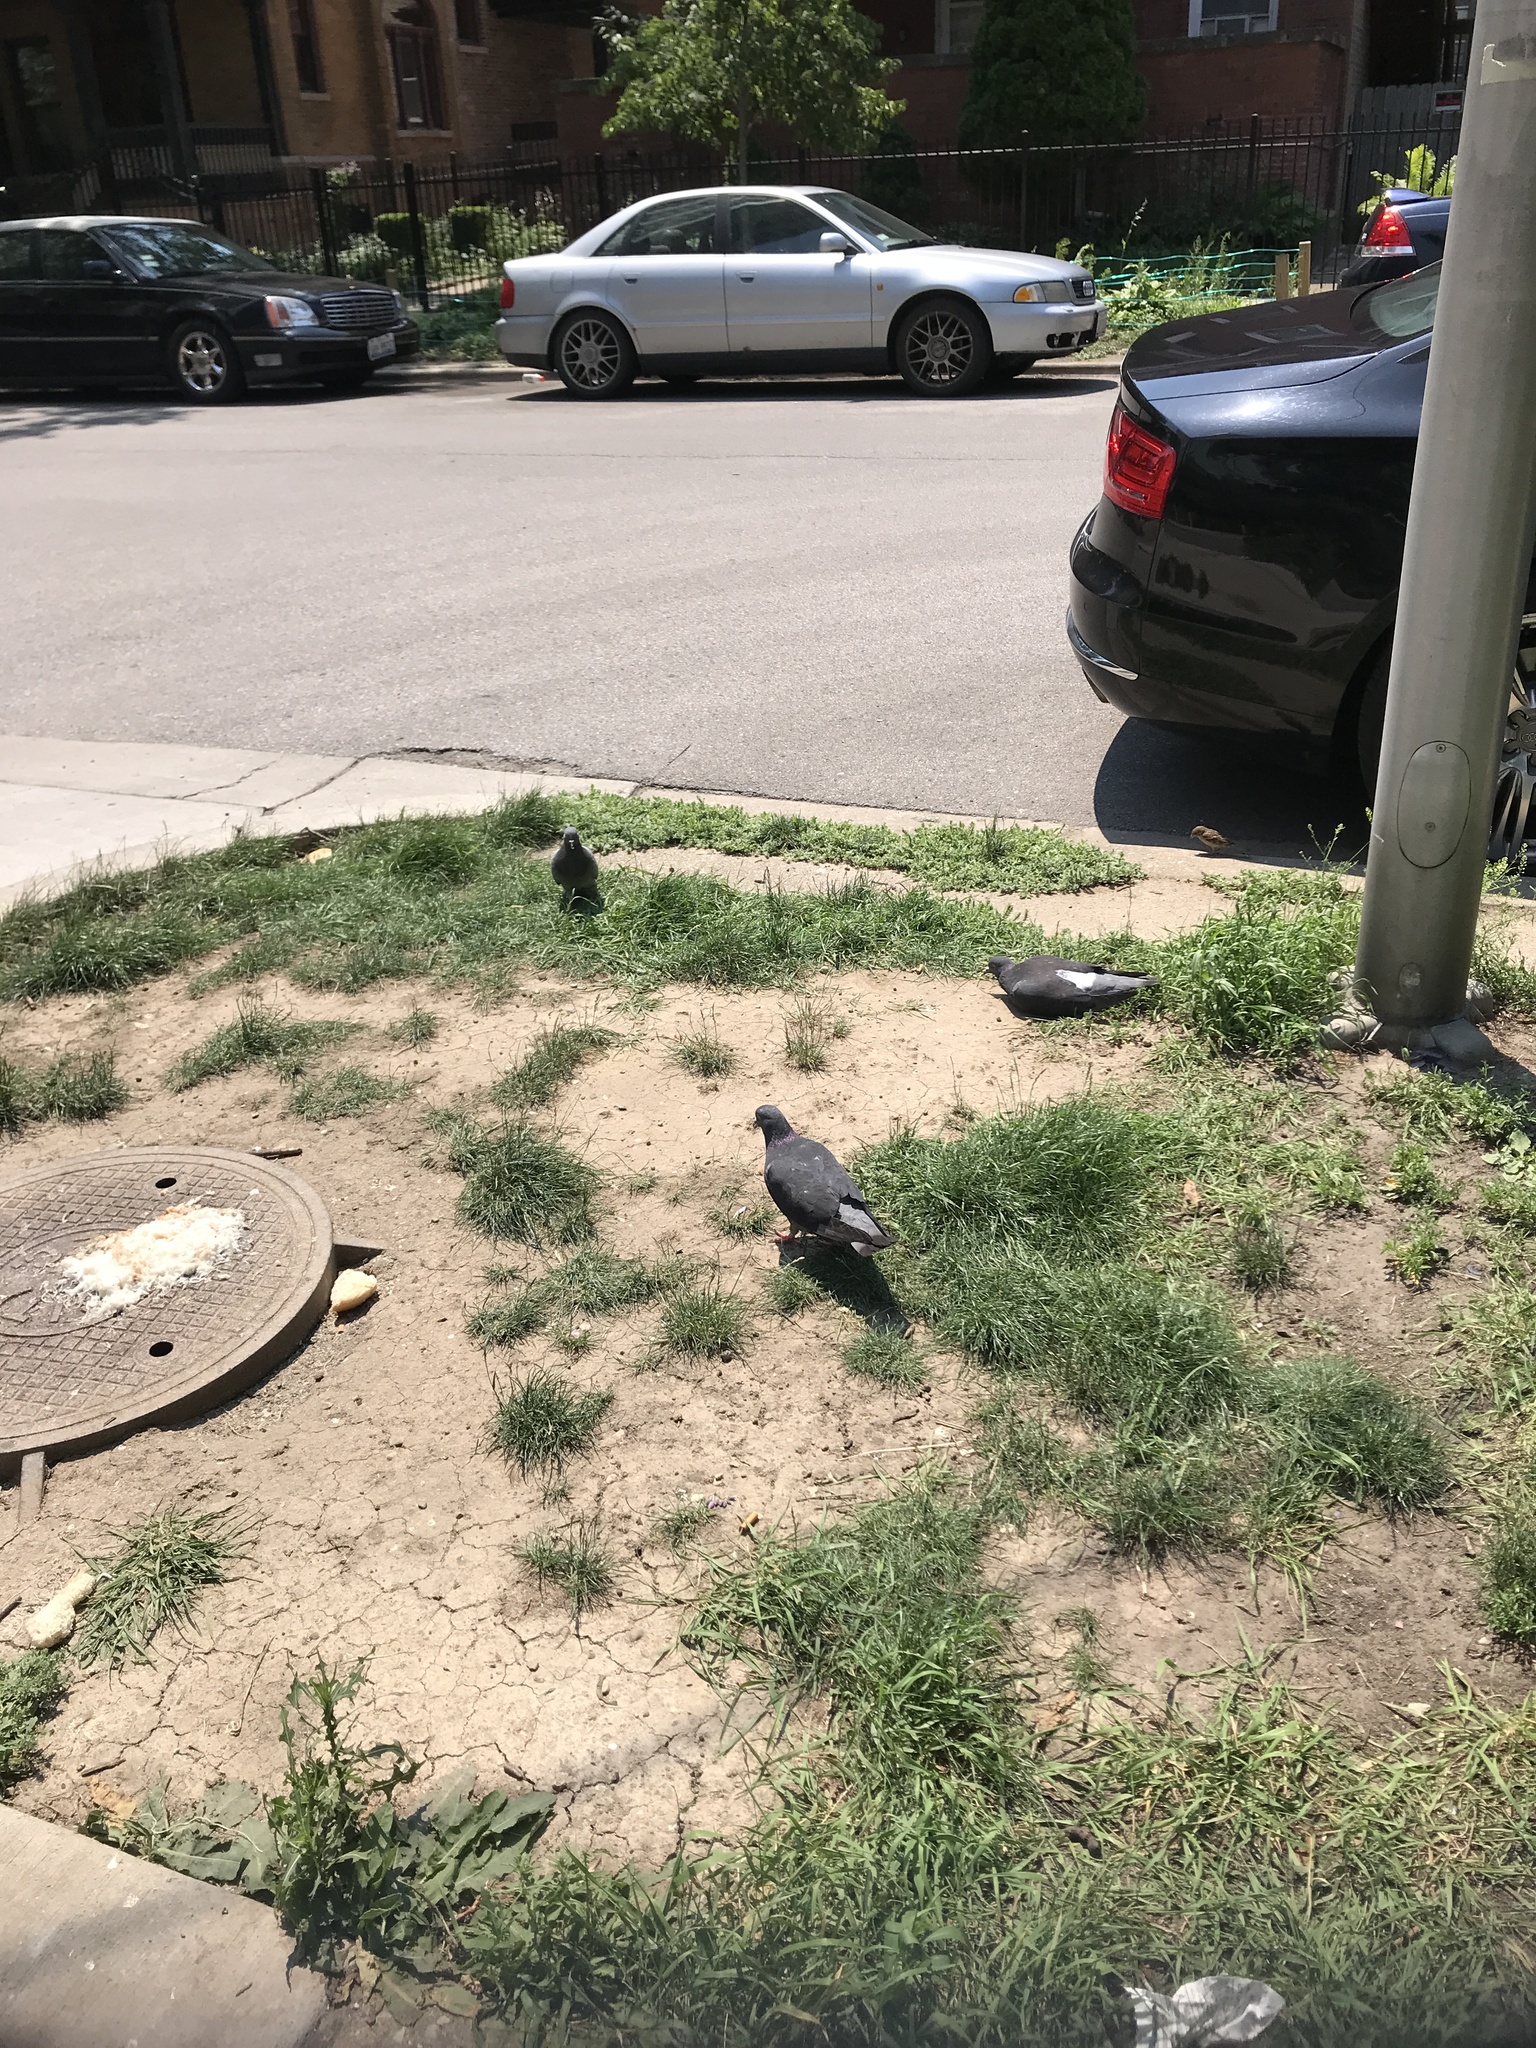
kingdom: Animalia
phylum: Chordata
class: Aves
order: Columbiformes
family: Columbidae
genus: Columba
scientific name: Columba livia
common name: Rock pigeon
